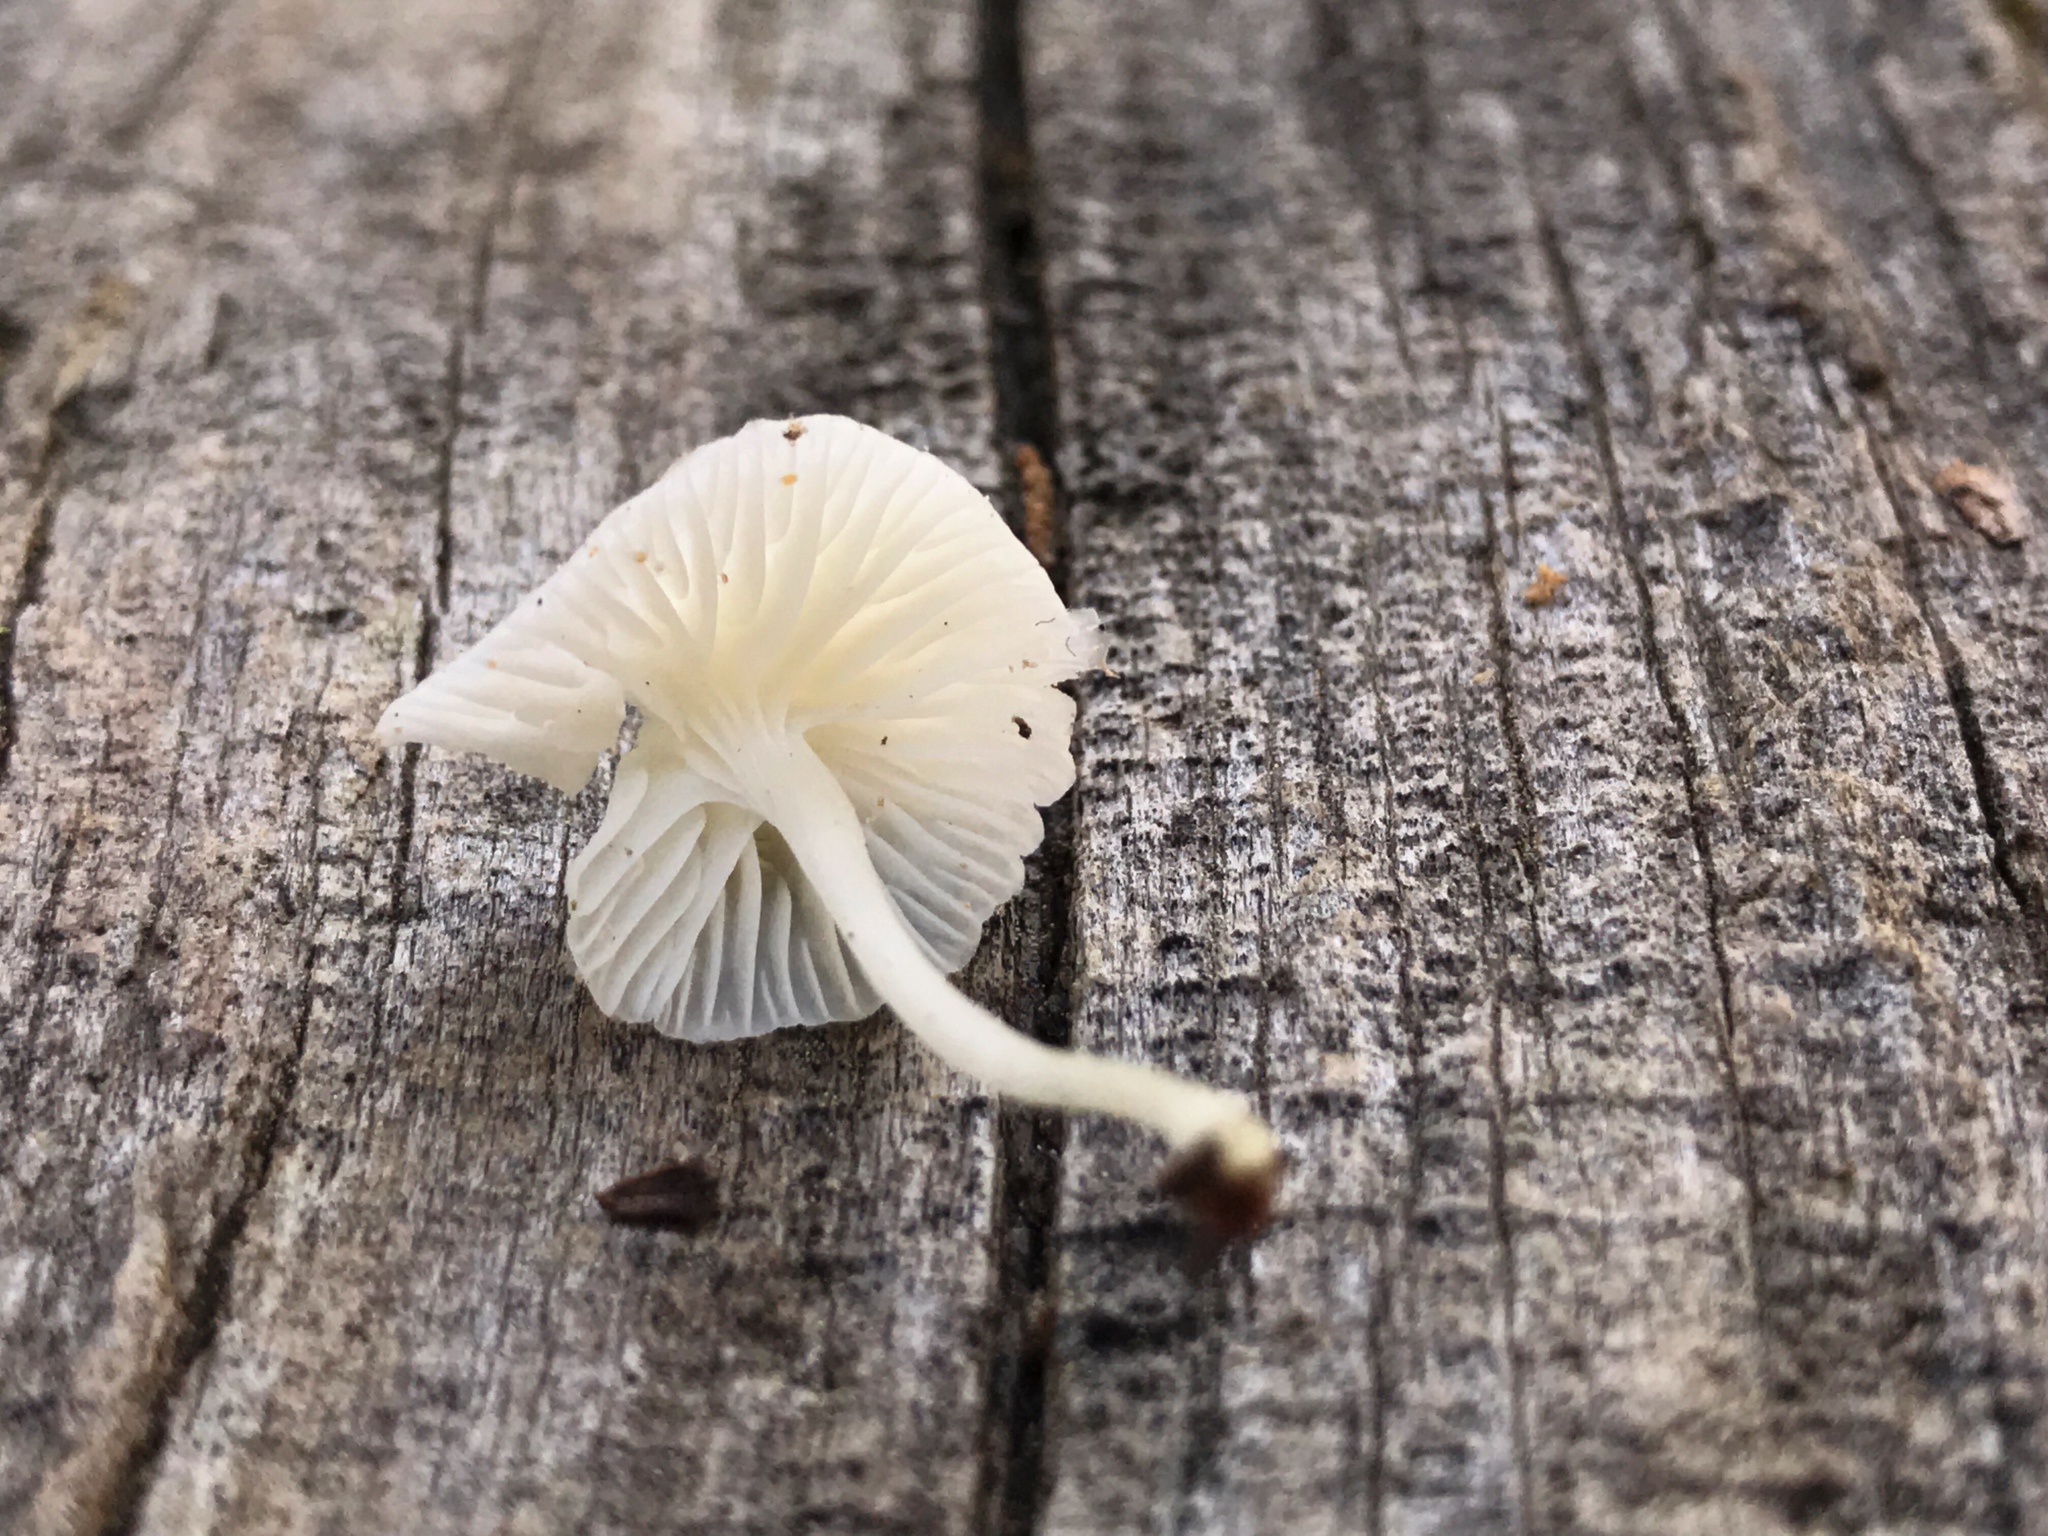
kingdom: Fungi
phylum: Basidiomycota
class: Agaricomycetes
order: Agaricales
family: Mycenaceae
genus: Atheniella
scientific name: Atheniella delectabilis
